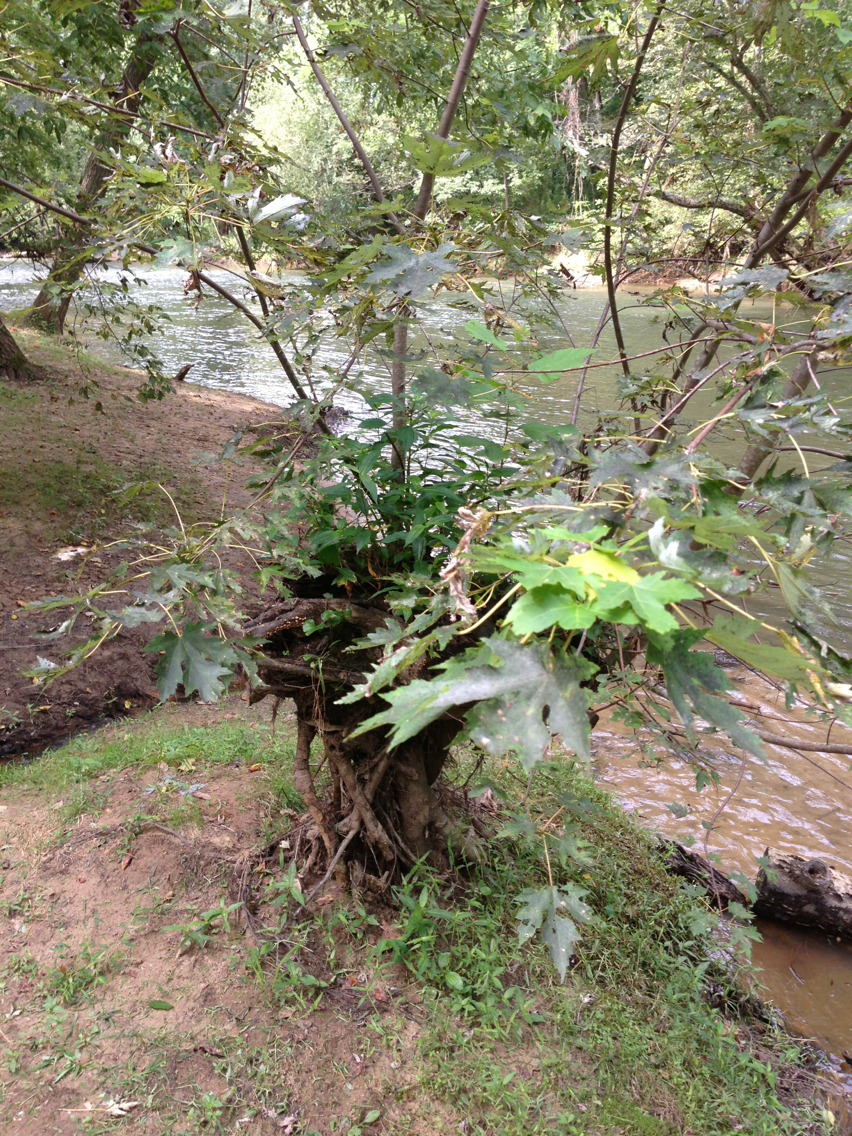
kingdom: Plantae
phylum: Tracheophyta
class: Magnoliopsida
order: Sapindales
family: Sapindaceae
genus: Acer
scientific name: Acer saccharinum
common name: Silver maple
